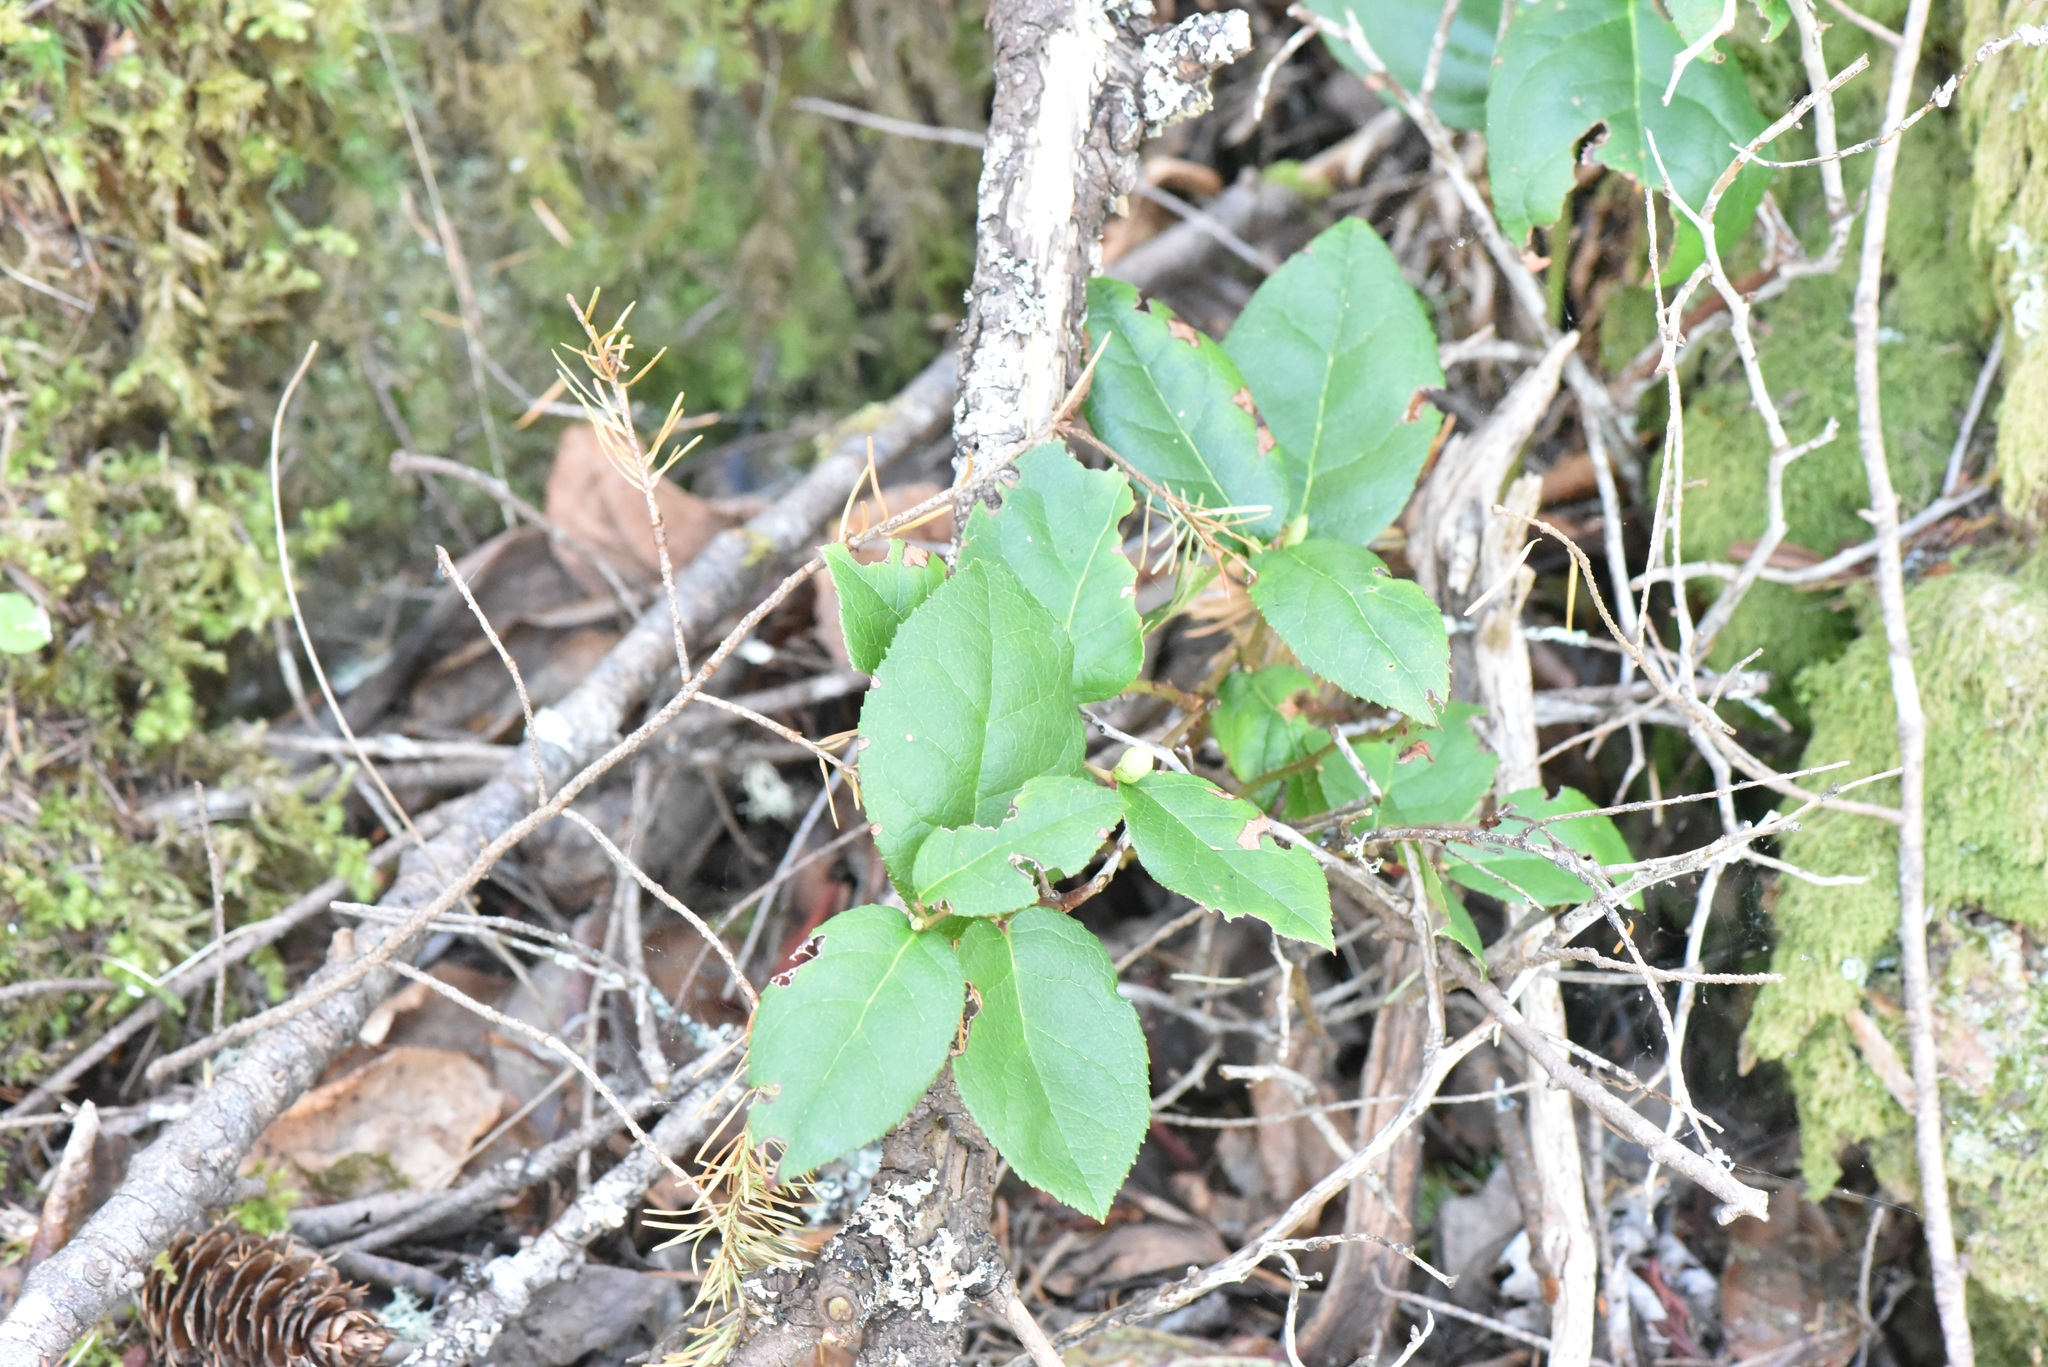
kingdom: Plantae
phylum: Tracheophyta
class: Magnoliopsida
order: Ericales
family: Ericaceae
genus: Gaultheria
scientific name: Gaultheria shallon
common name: Shallon
